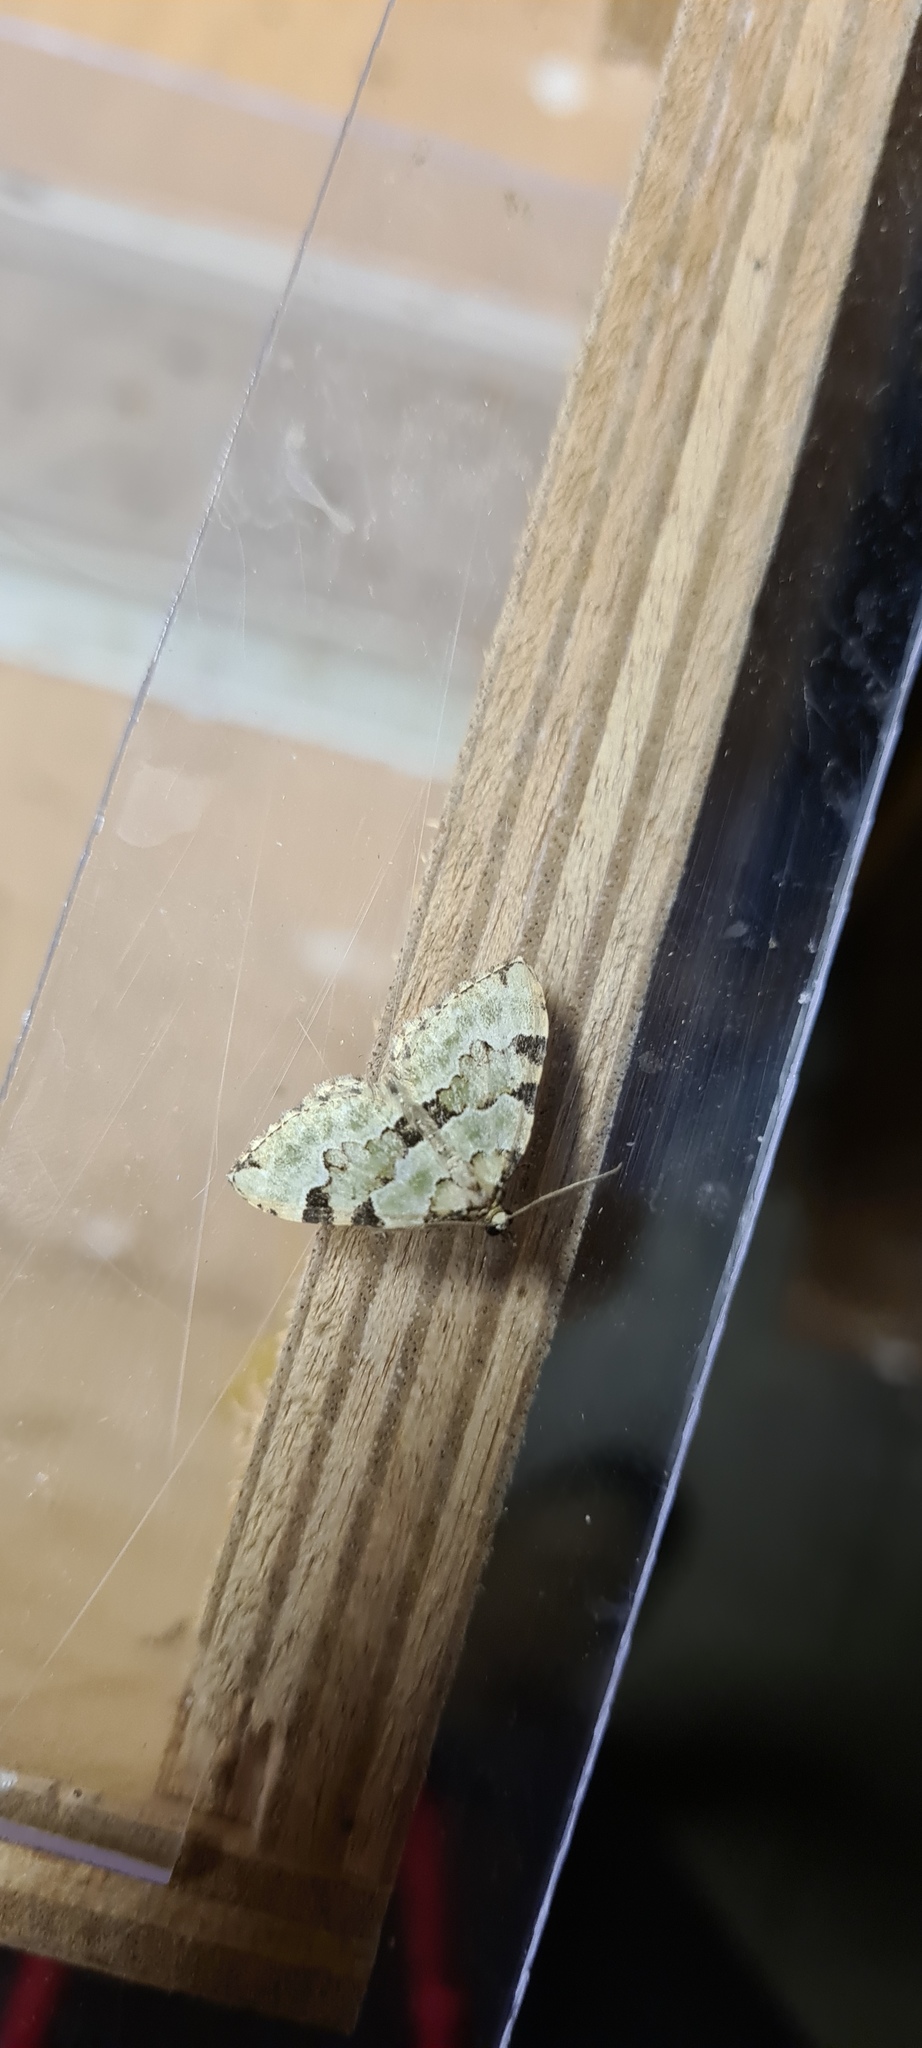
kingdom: Animalia
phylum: Arthropoda
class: Insecta
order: Lepidoptera
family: Geometridae
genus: Colostygia
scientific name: Colostygia pectinataria
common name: Green carpet
